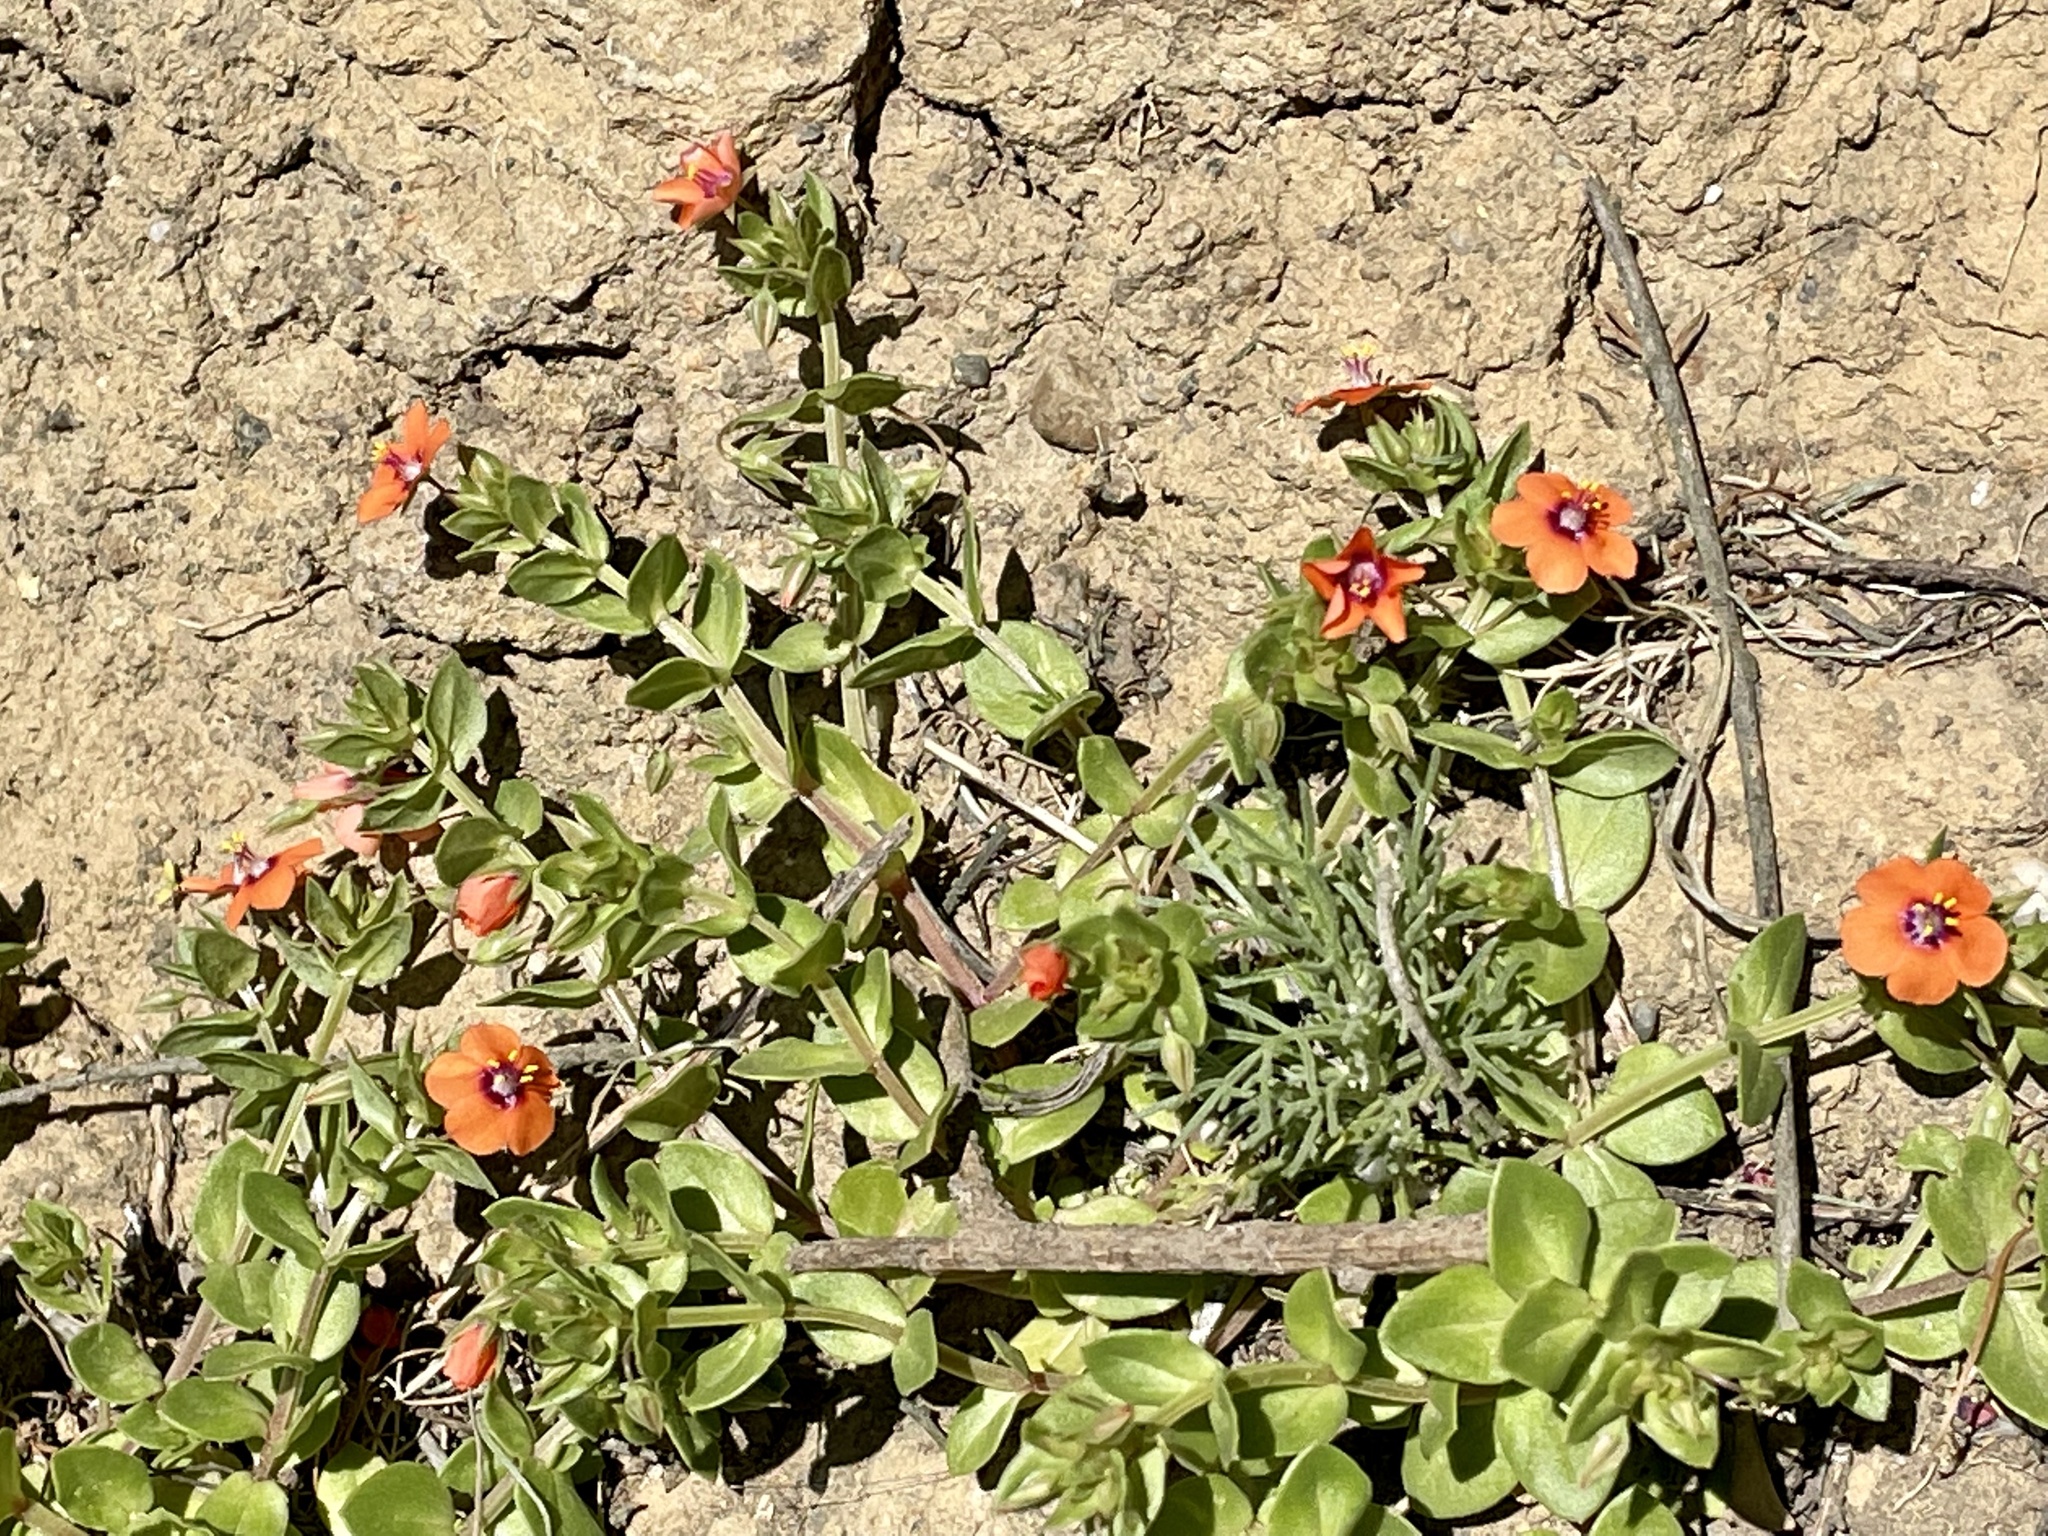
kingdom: Plantae
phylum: Tracheophyta
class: Magnoliopsida
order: Ericales
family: Primulaceae
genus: Lysimachia
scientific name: Lysimachia arvensis
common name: Scarlet pimpernel
